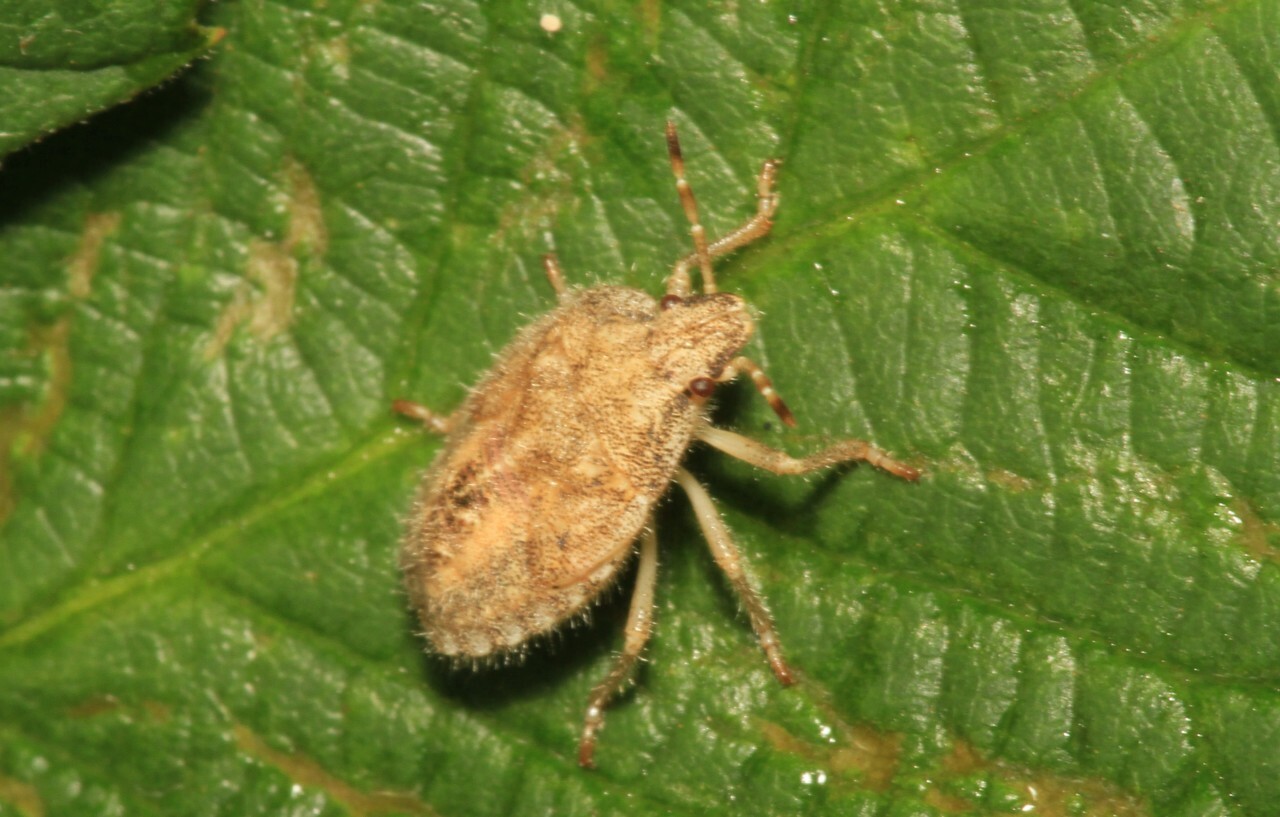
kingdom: Animalia
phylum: Arthropoda
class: Insecta
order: Hemiptera
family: Pentatomidae
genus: Dolycoris
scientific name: Dolycoris baccarum
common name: Sloe bug
